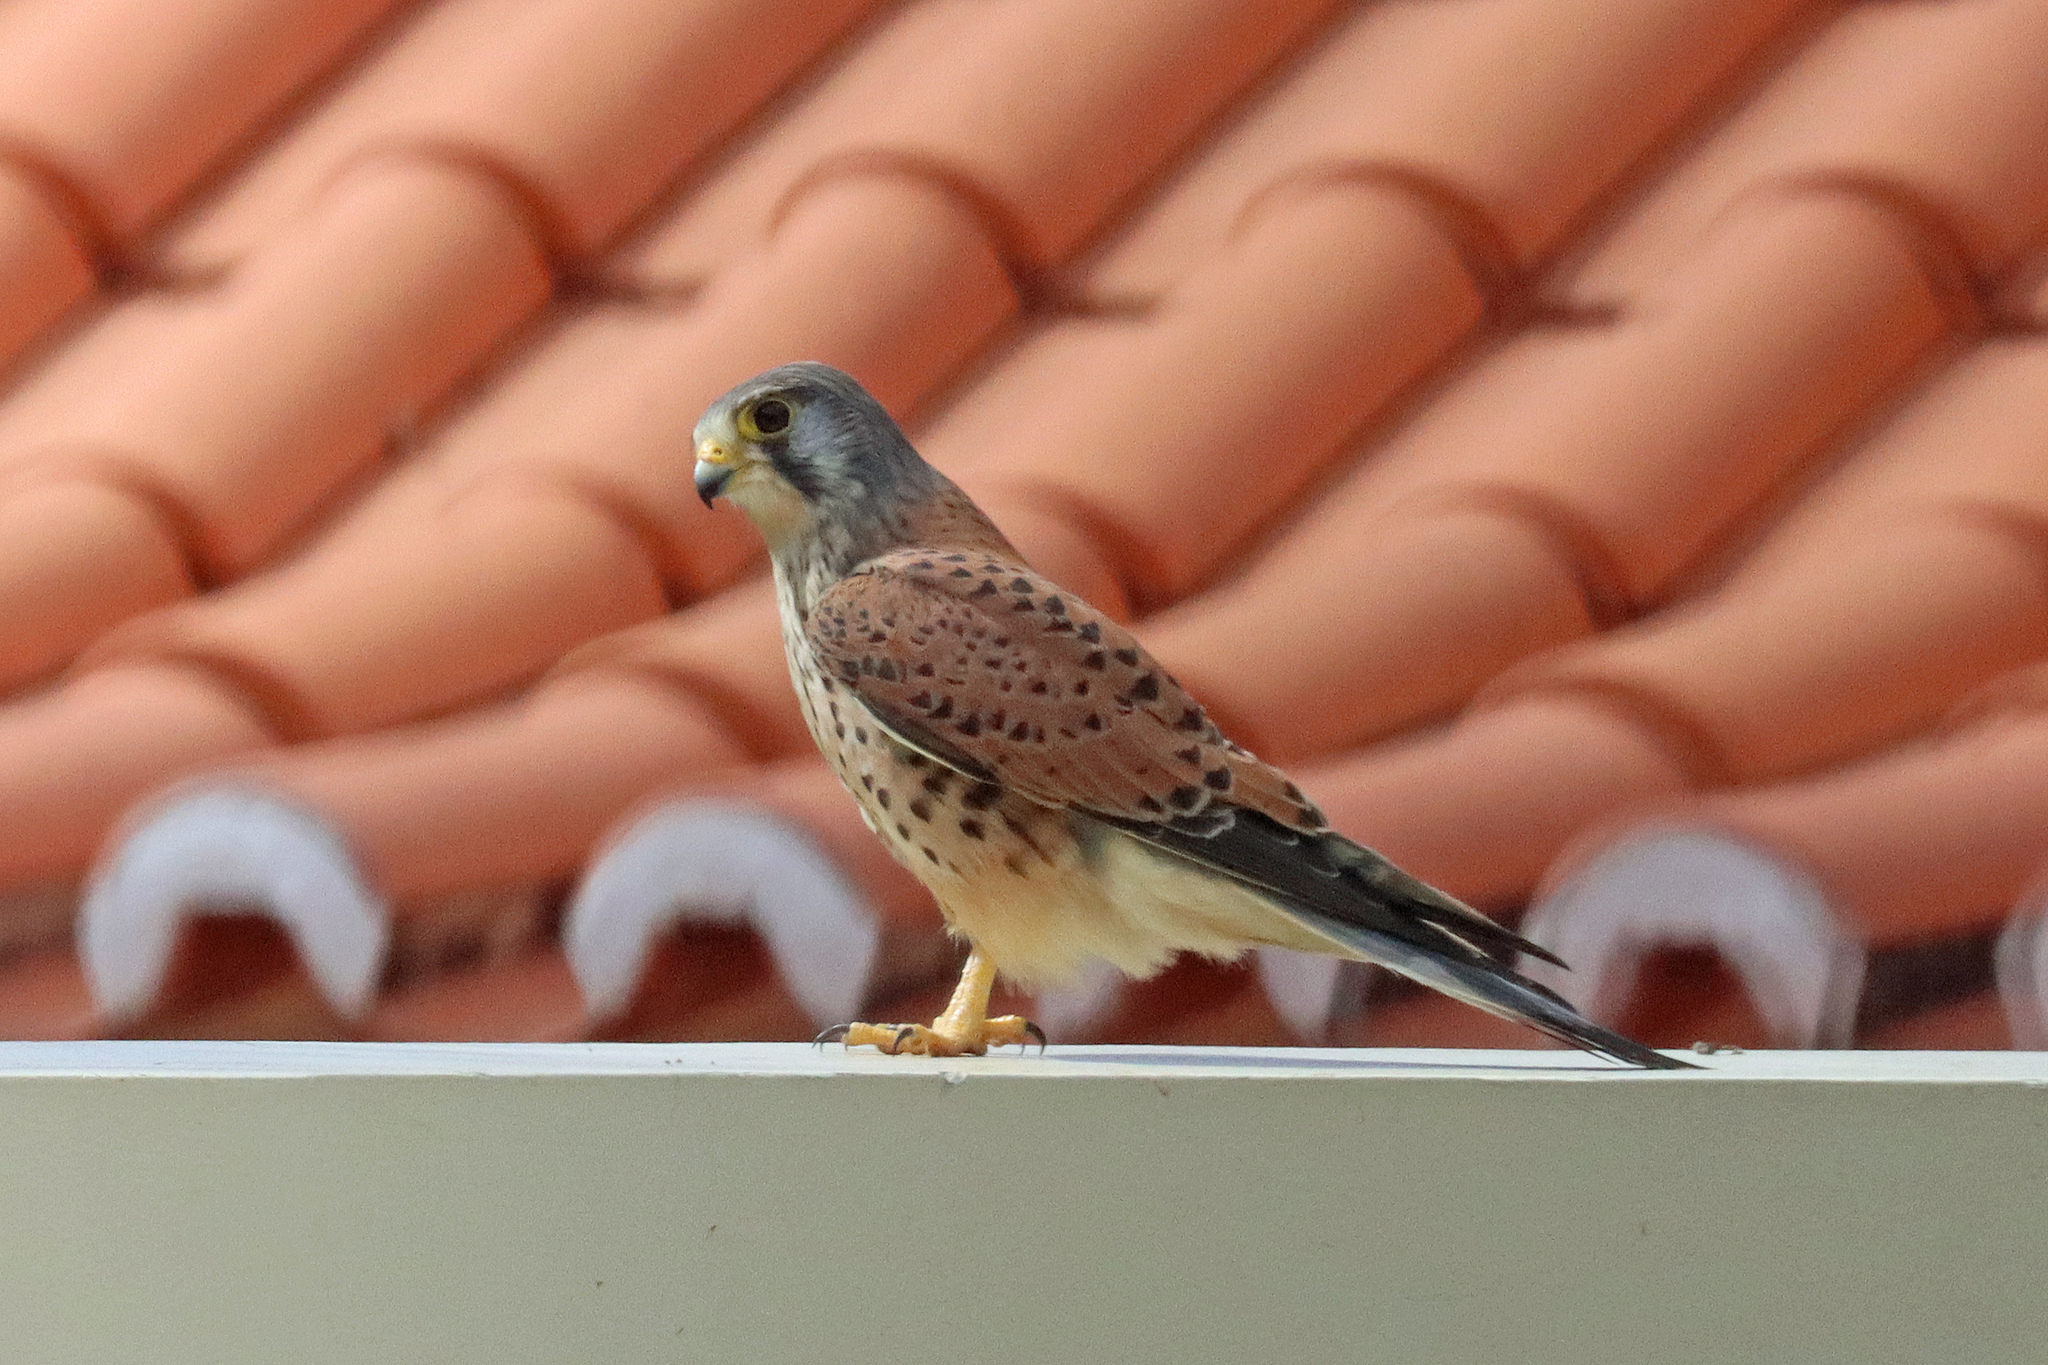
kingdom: Animalia
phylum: Chordata
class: Aves
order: Falconiformes
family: Falconidae
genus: Falco
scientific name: Falco tinnunculus
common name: Common kestrel
